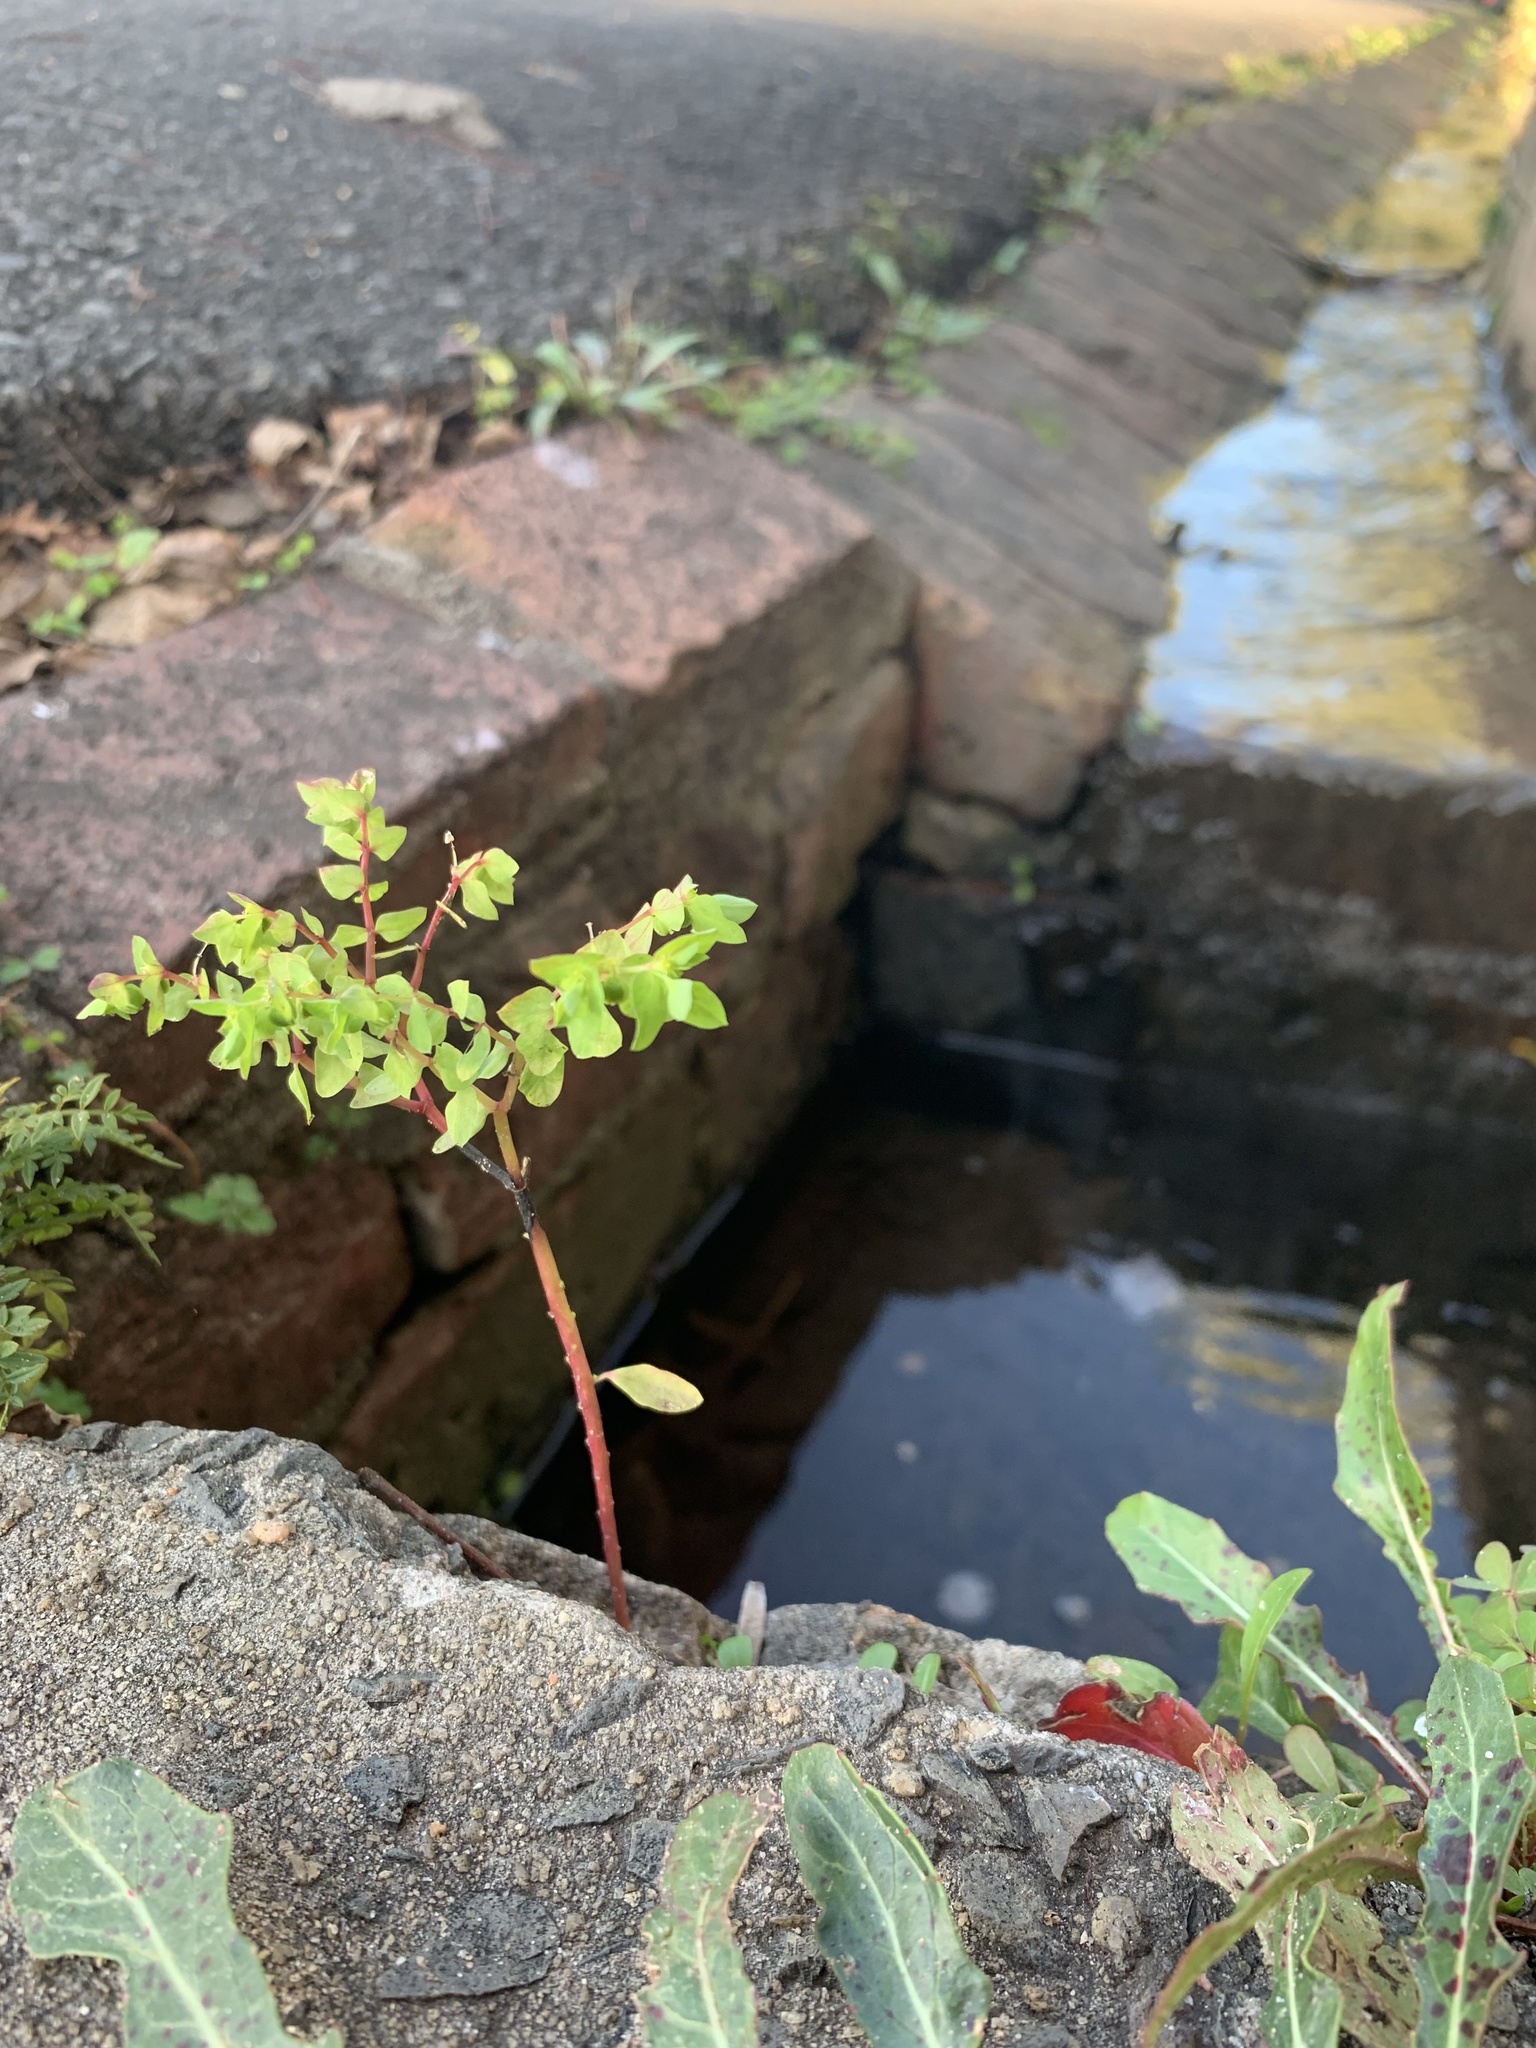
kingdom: Plantae
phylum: Tracheophyta
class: Magnoliopsida
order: Malpighiales
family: Euphorbiaceae
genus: Euphorbia
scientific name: Euphorbia peplus
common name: Petty spurge
